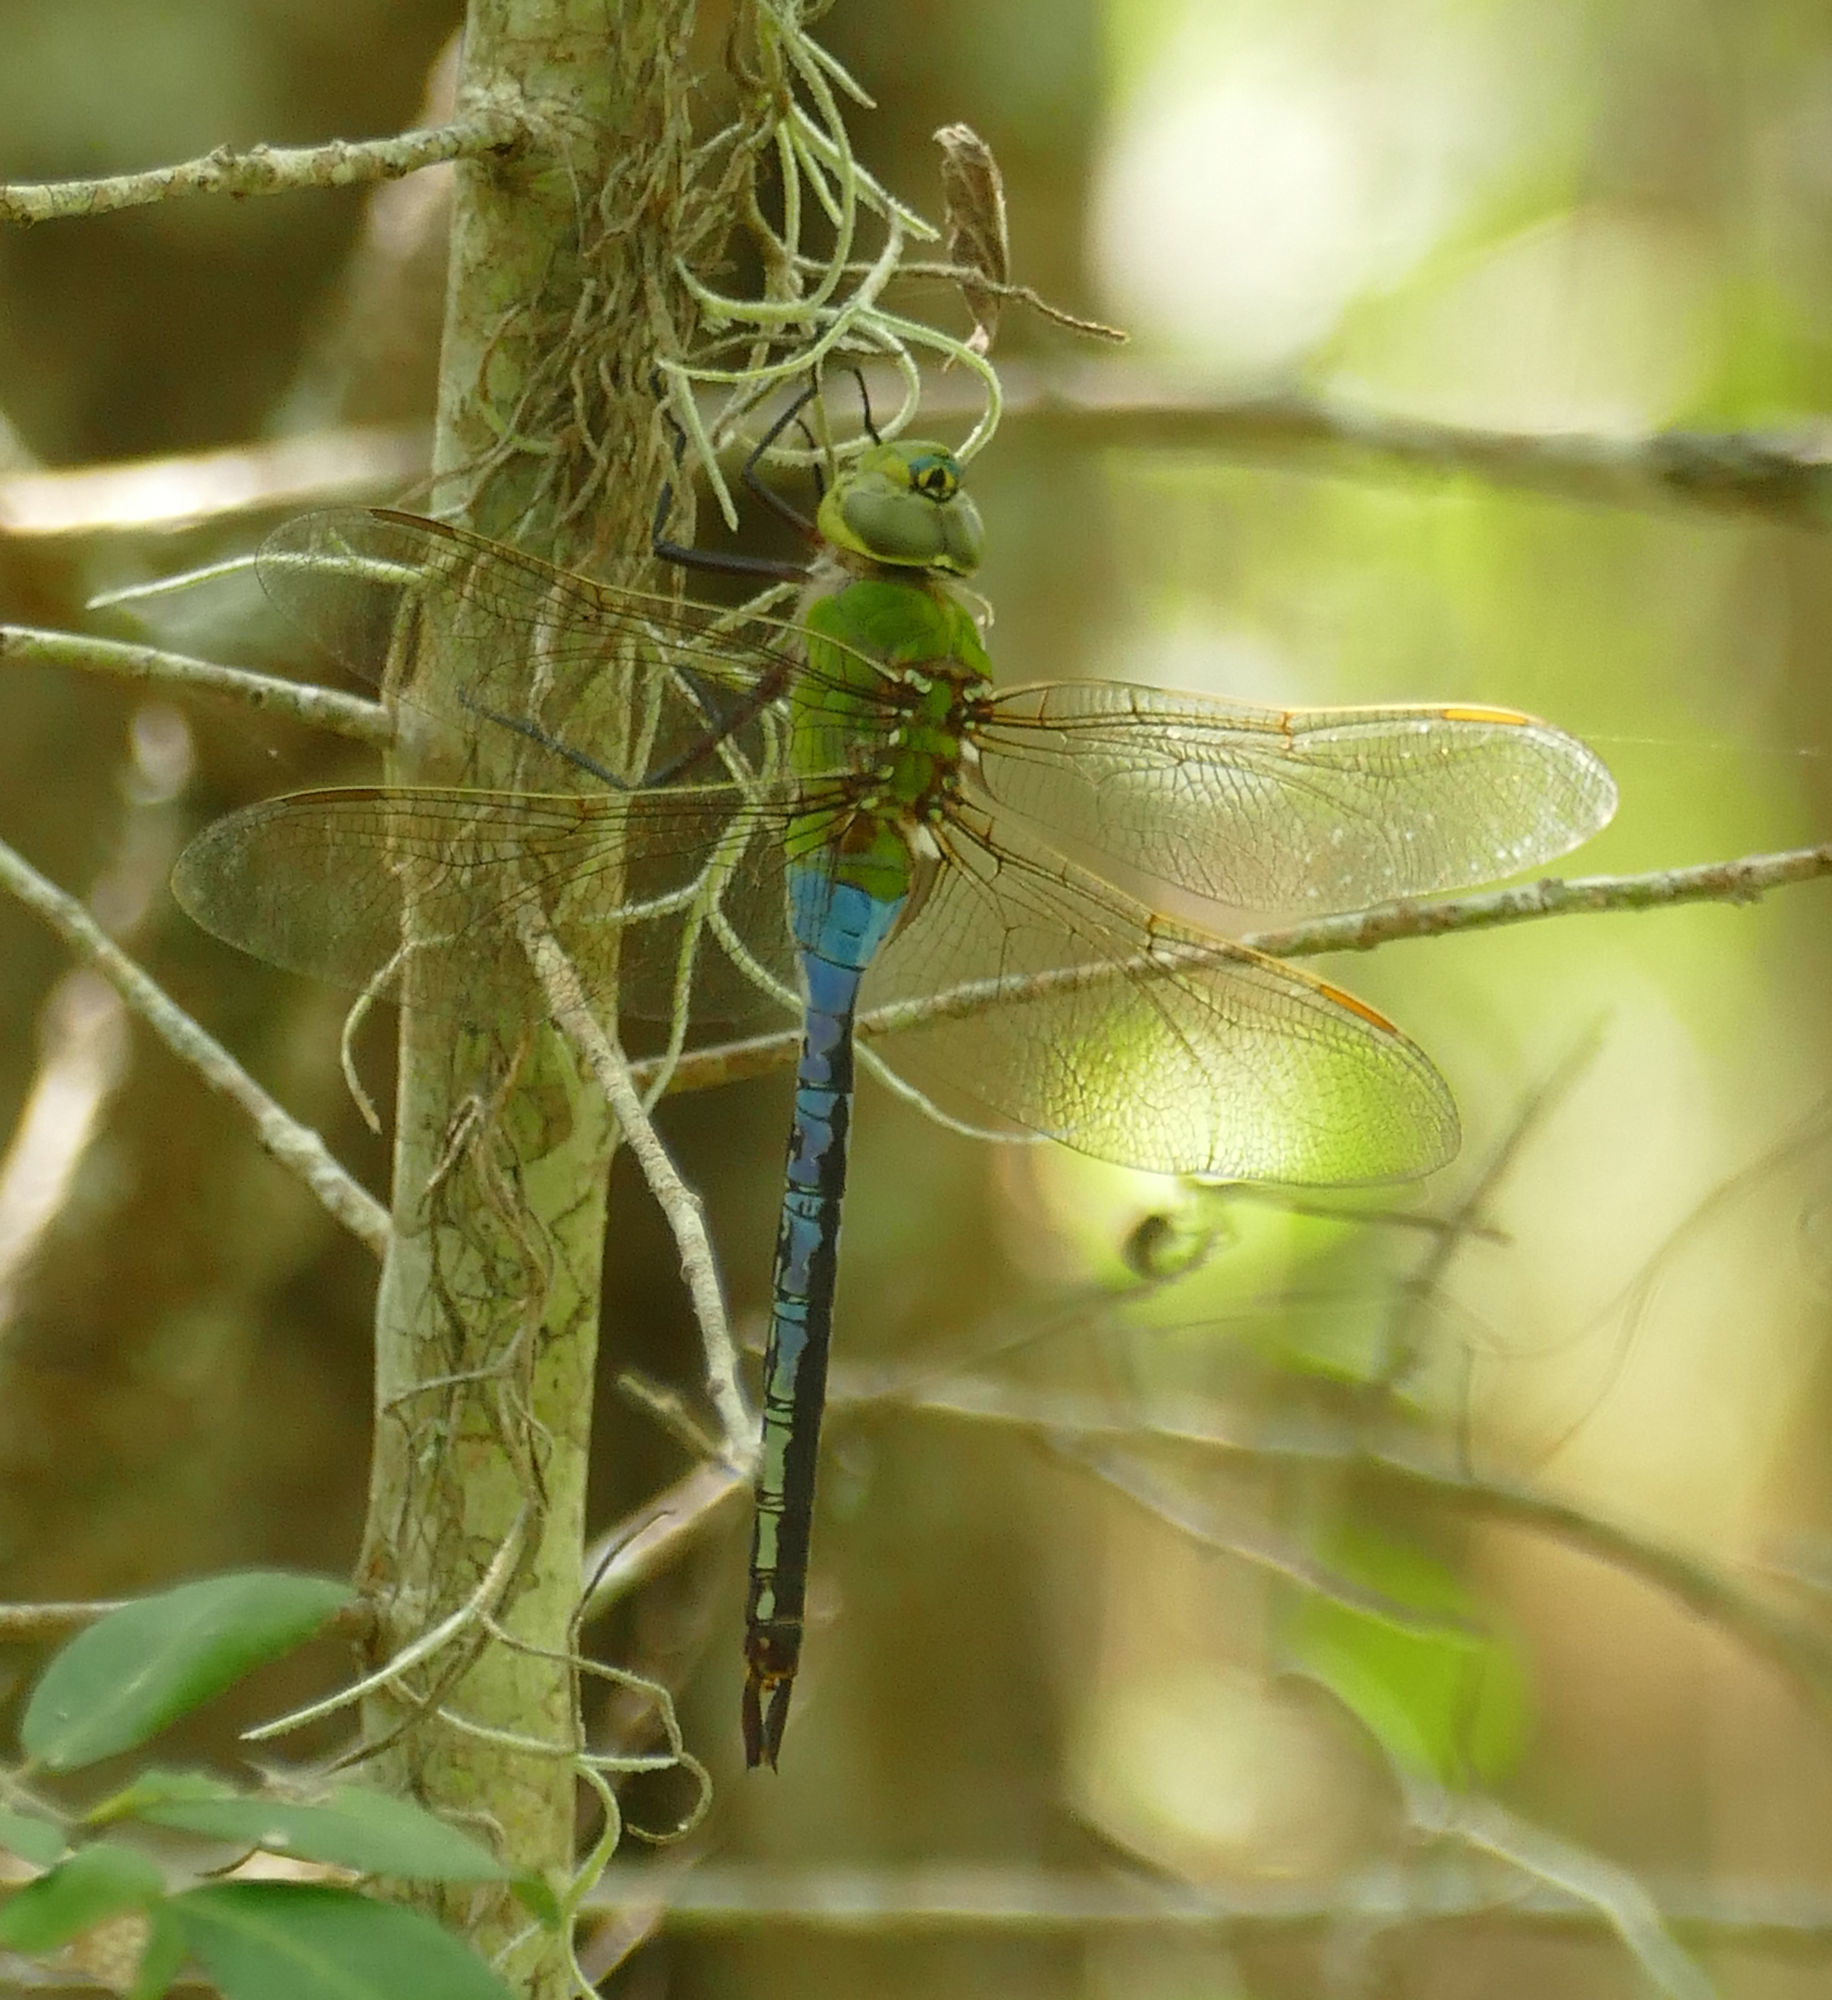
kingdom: Animalia
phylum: Arthropoda
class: Insecta
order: Odonata
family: Aeshnidae
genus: Anax
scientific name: Anax junius
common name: Common green darner
